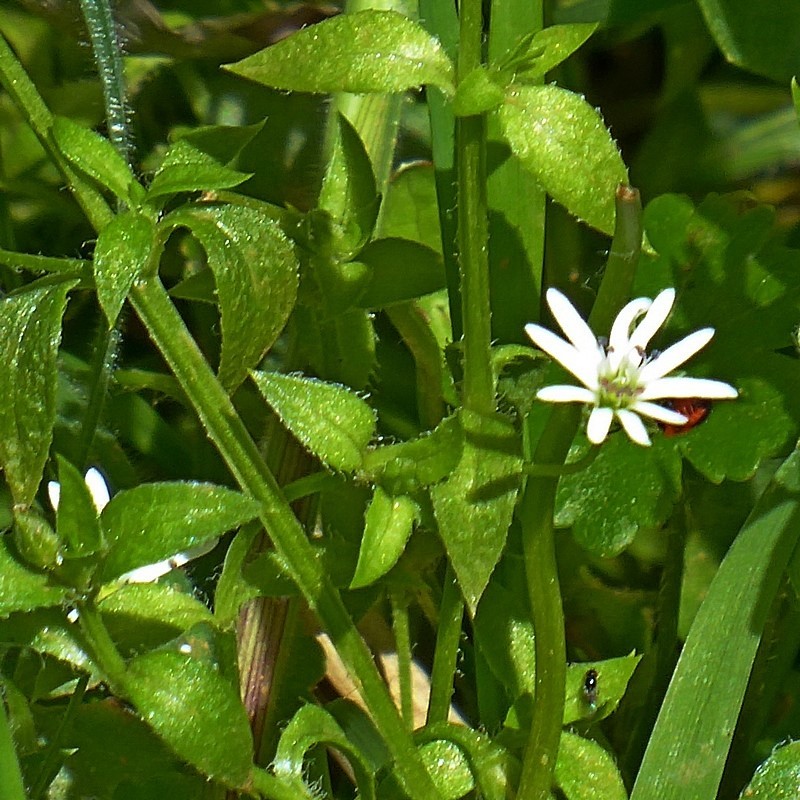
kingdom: Plantae
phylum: Tracheophyta
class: Magnoliopsida
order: Caryophyllales
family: Caryophyllaceae
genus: Stellaria
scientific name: Stellaria flaccida
